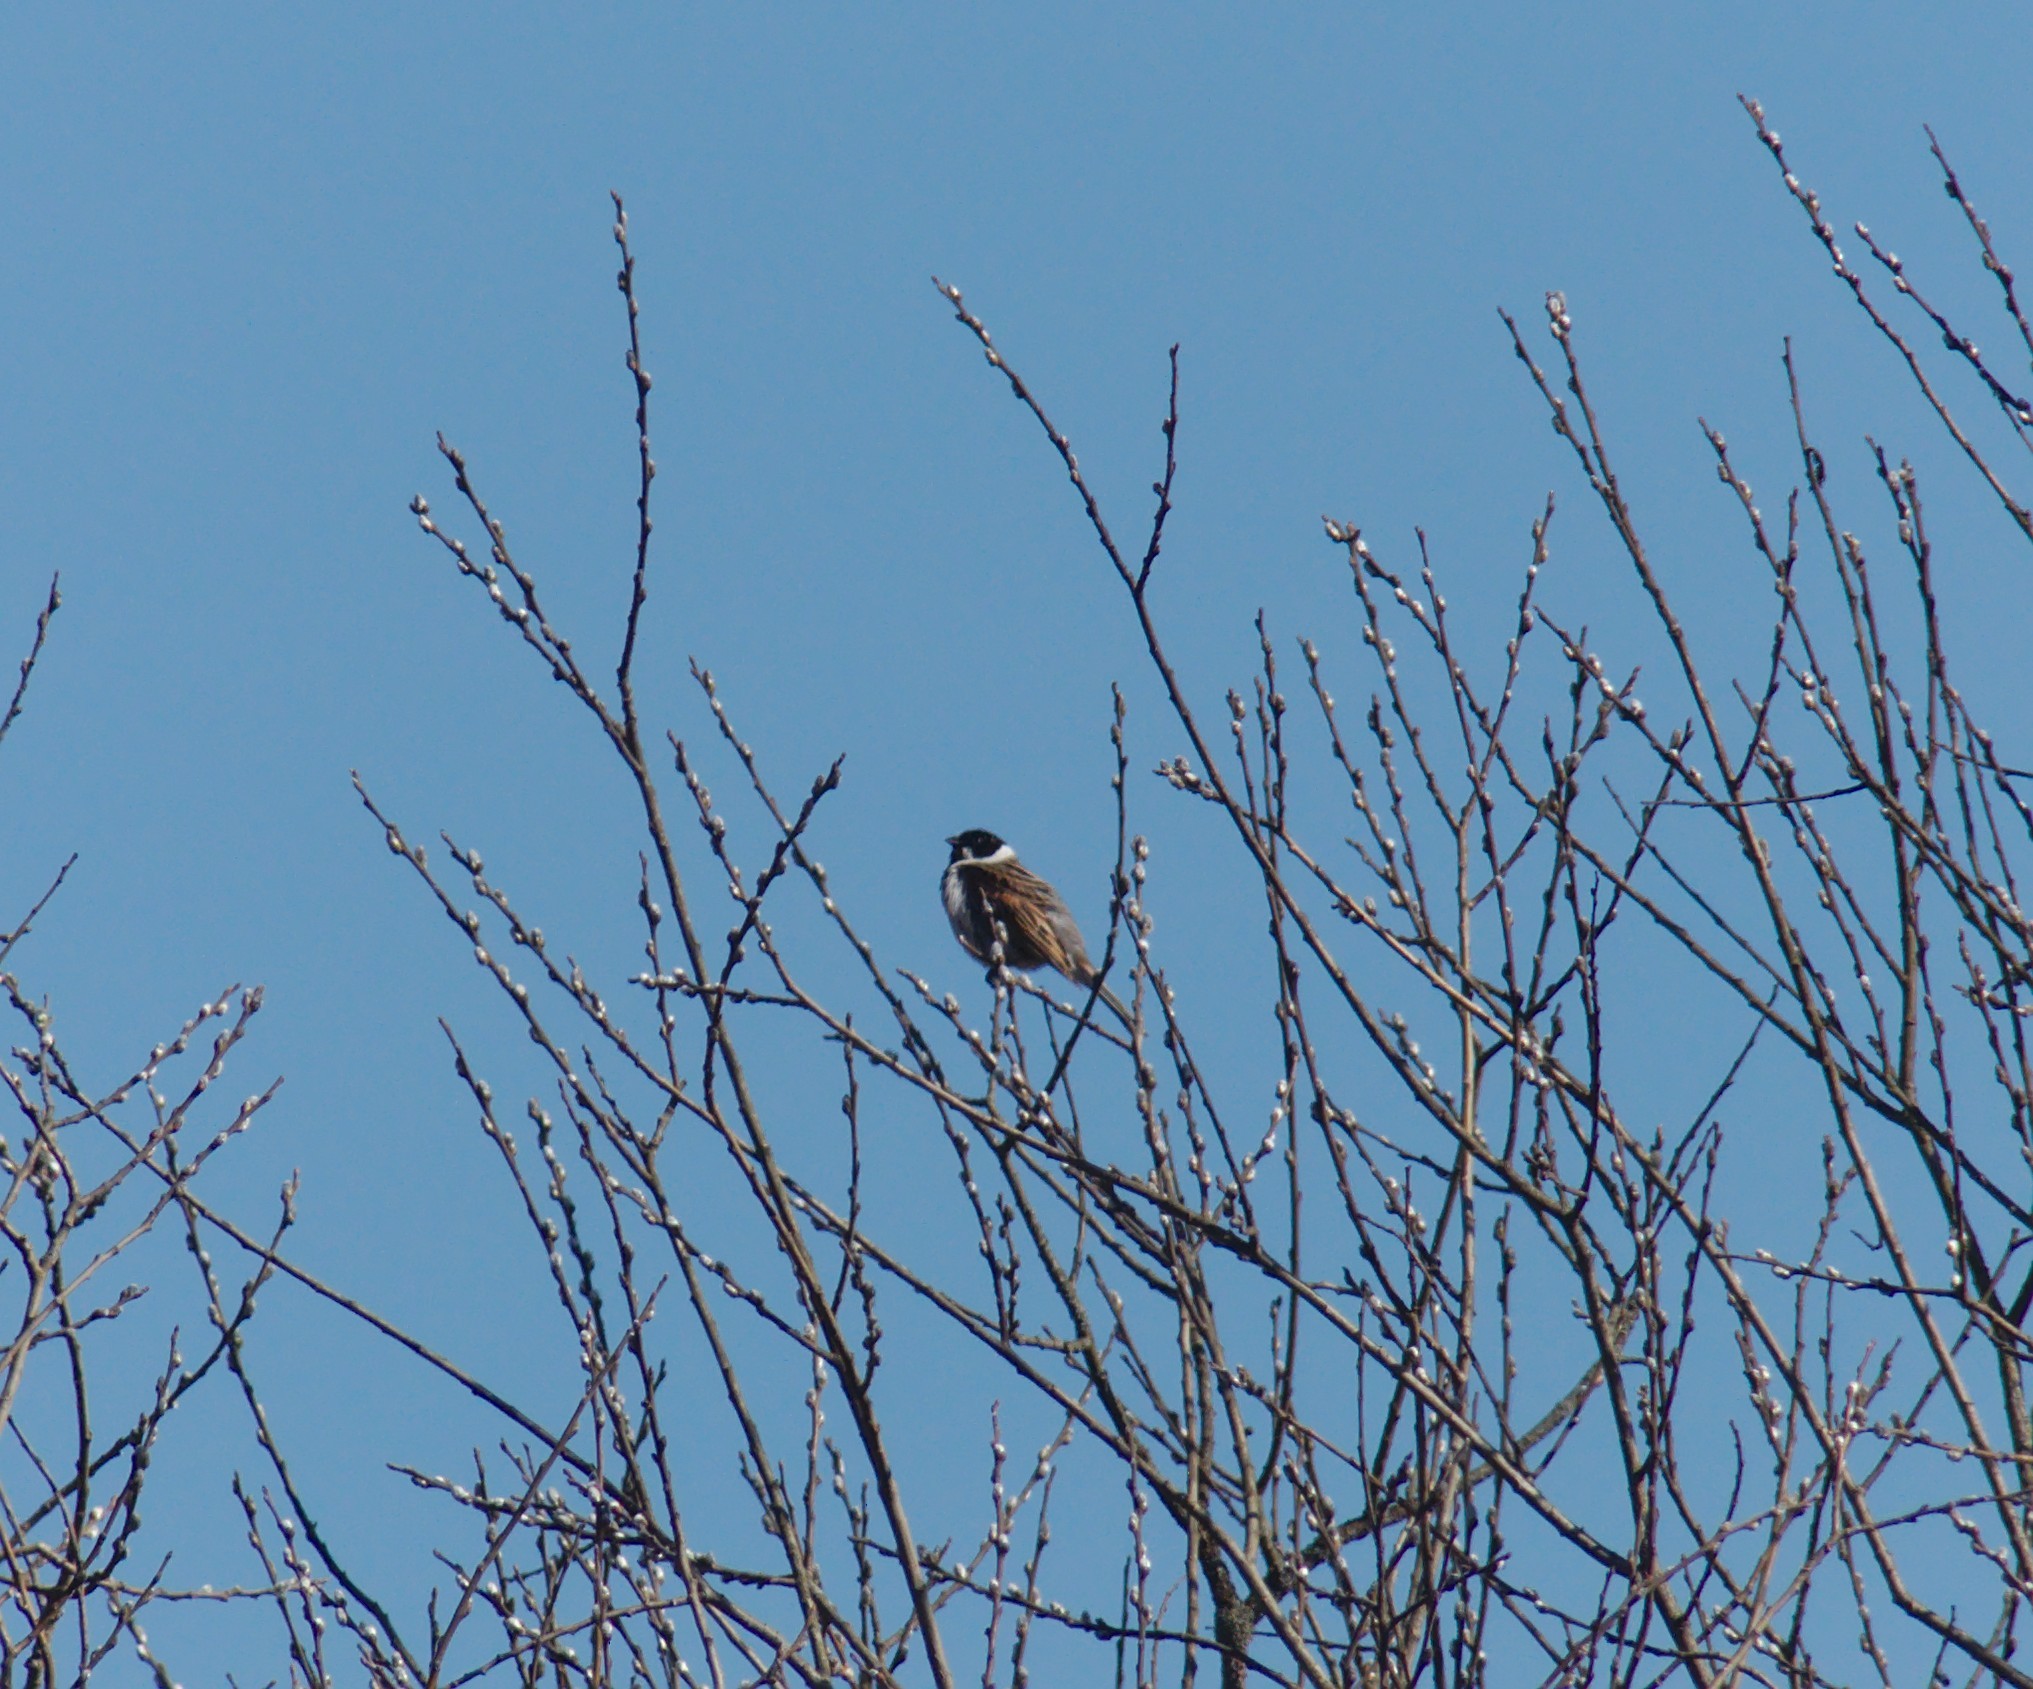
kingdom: Animalia
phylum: Chordata
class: Aves
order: Passeriformes
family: Emberizidae
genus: Emberiza
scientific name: Emberiza schoeniclus
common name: Reed bunting
